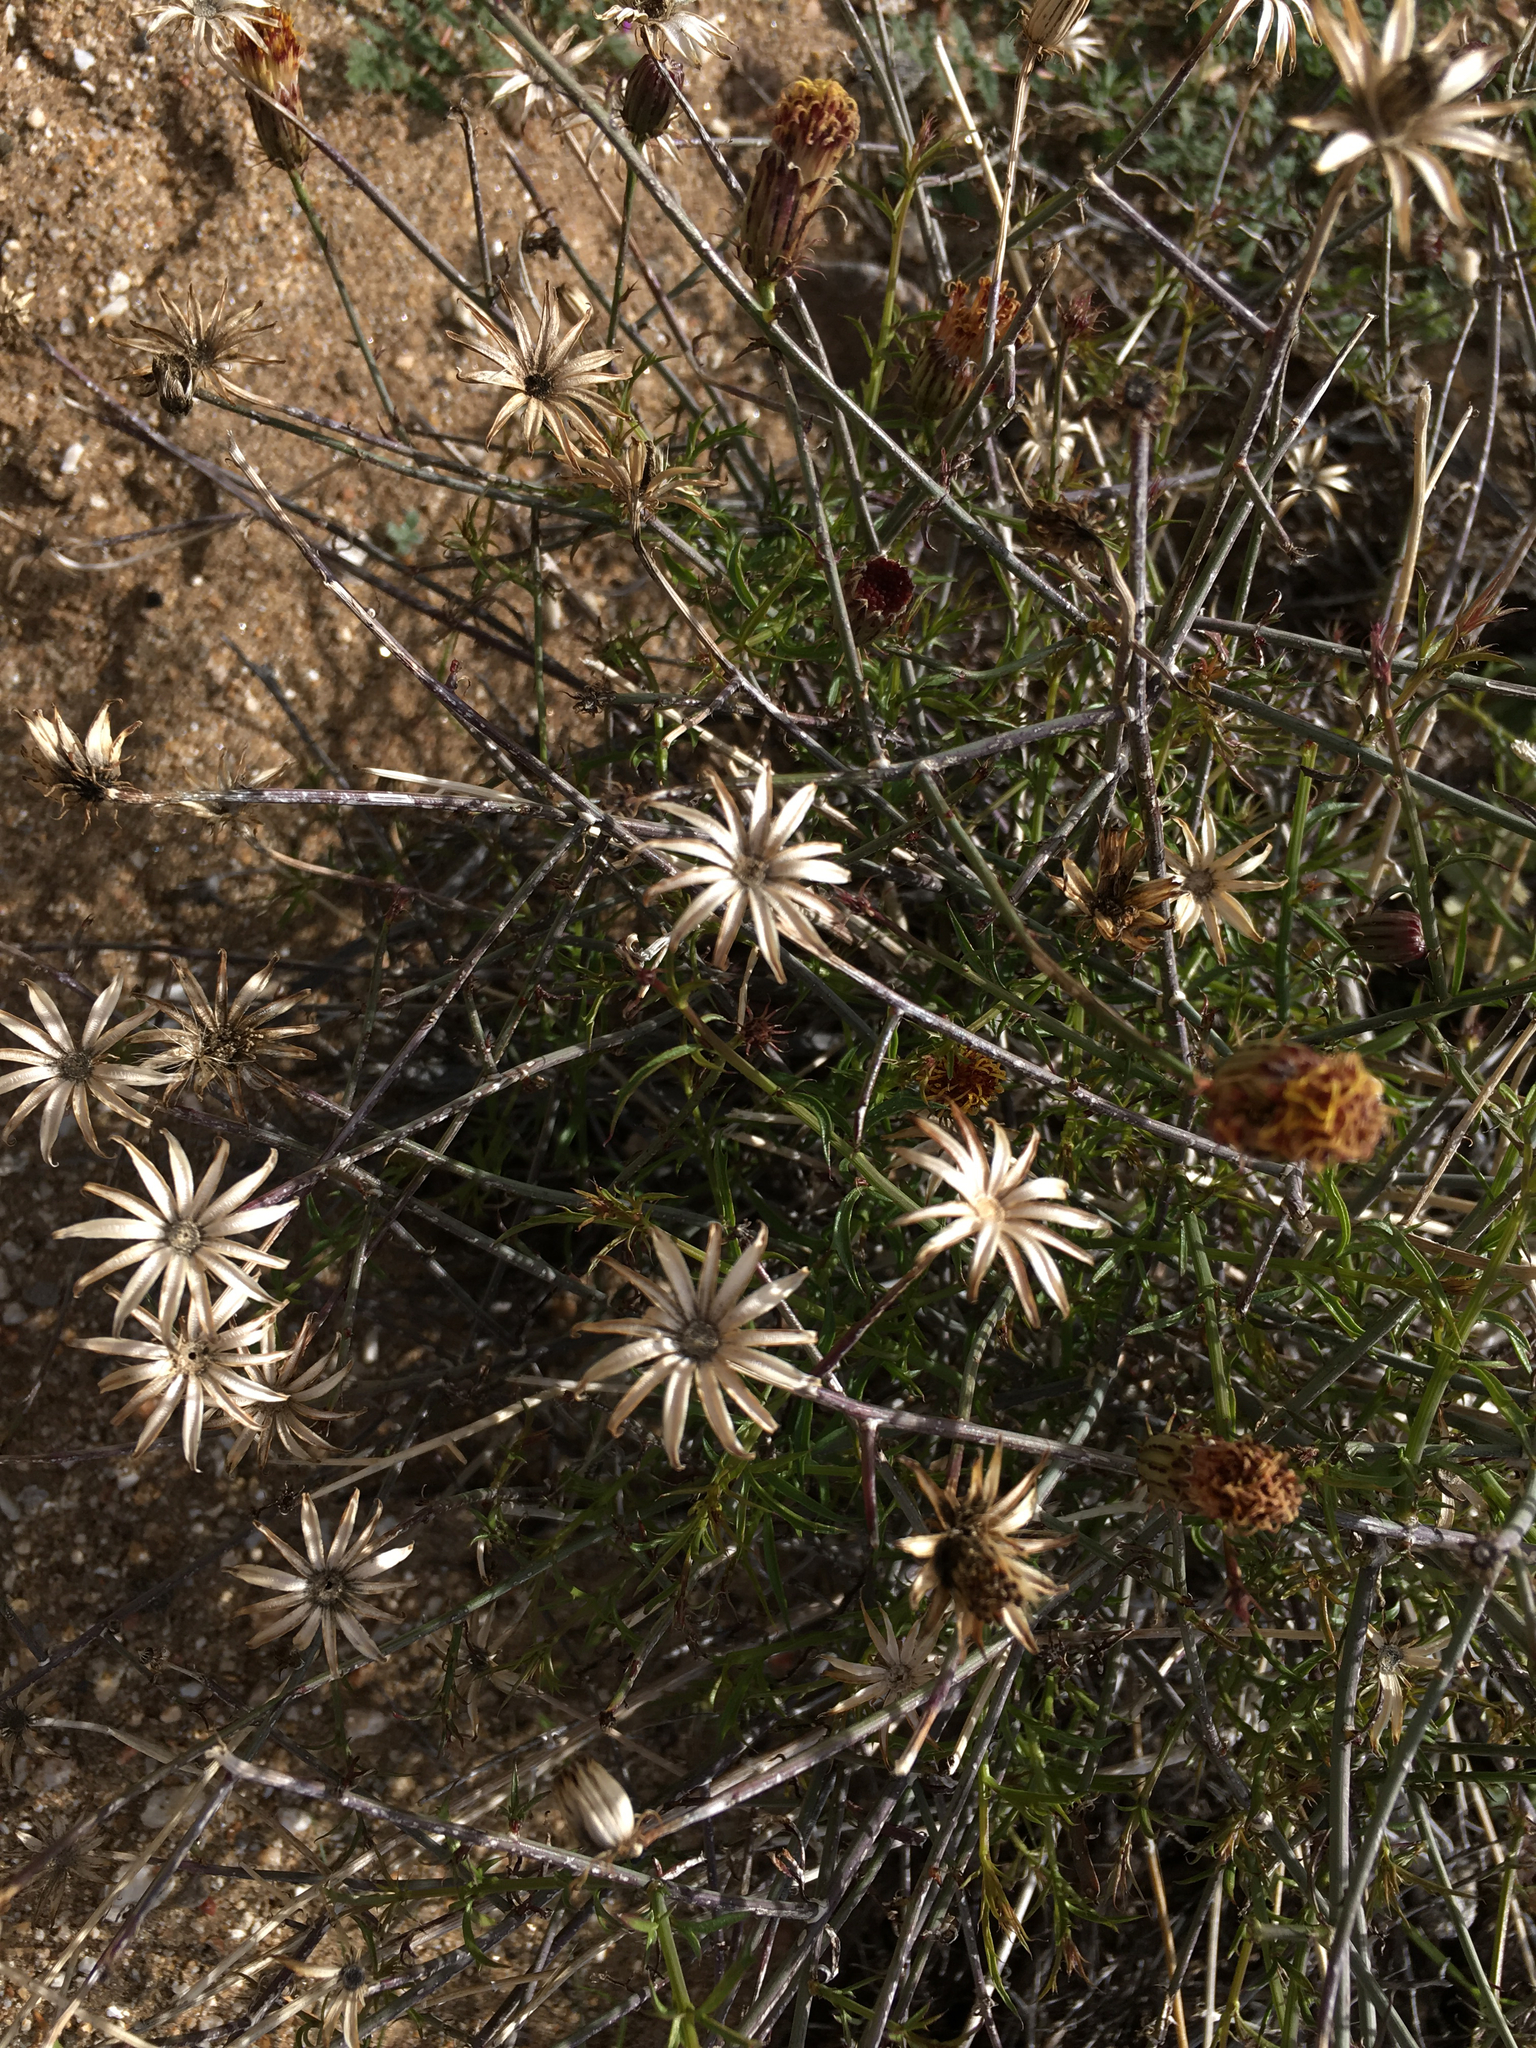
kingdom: Plantae
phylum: Tracheophyta
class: Magnoliopsida
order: Asterales
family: Asteraceae
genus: Adenophyllum
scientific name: Adenophyllum porophylloides
